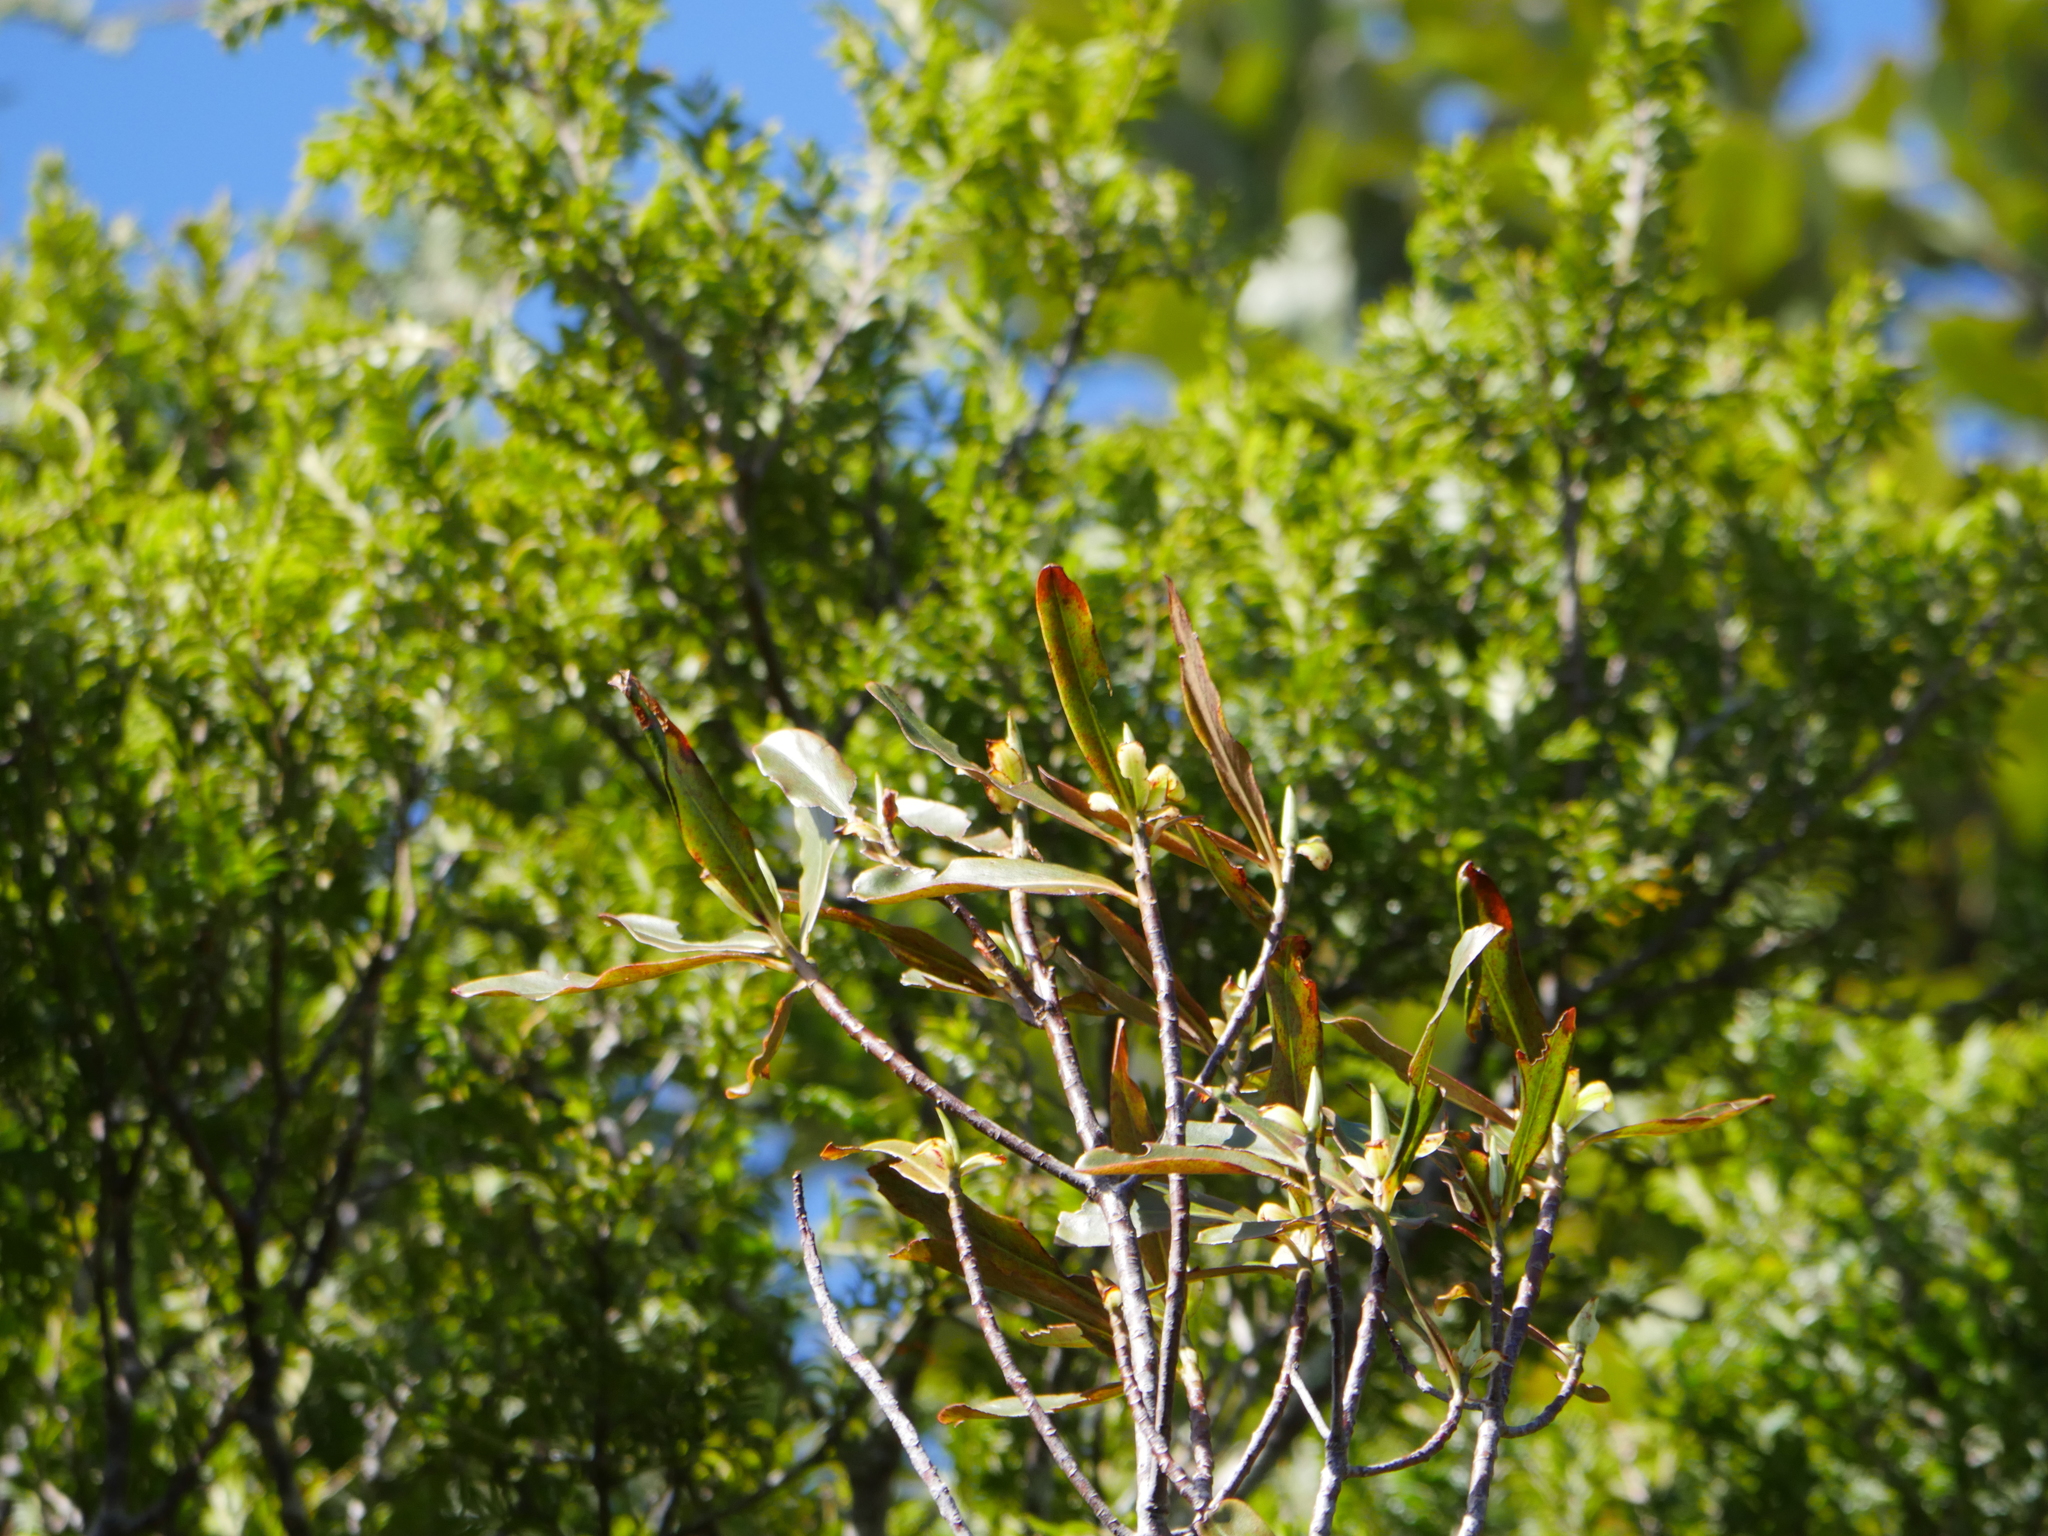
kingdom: Plantae
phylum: Tracheophyta
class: Magnoliopsida
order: Ericales
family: Primulaceae
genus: Myrsine
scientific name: Myrsine salicina
